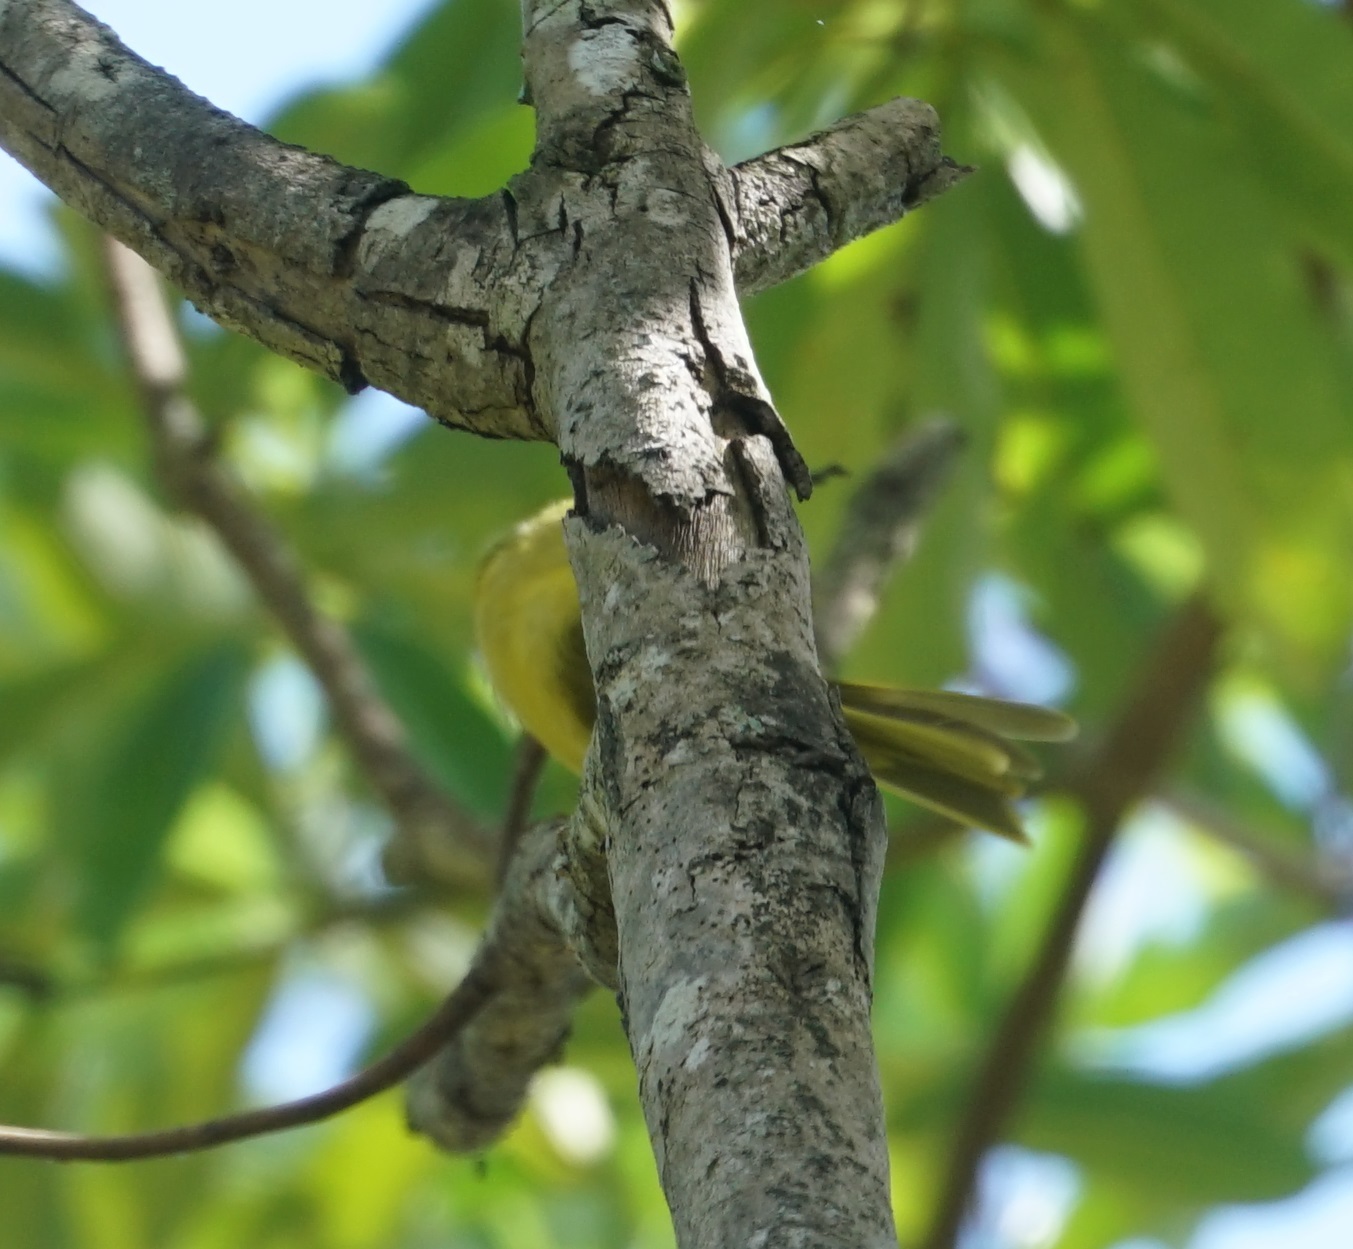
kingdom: Animalia
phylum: Chordata
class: Aves
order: Passeriformes
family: Meliphagidae
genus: Stomiopera
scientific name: Stomiopera flava
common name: Yellow honeyeater
